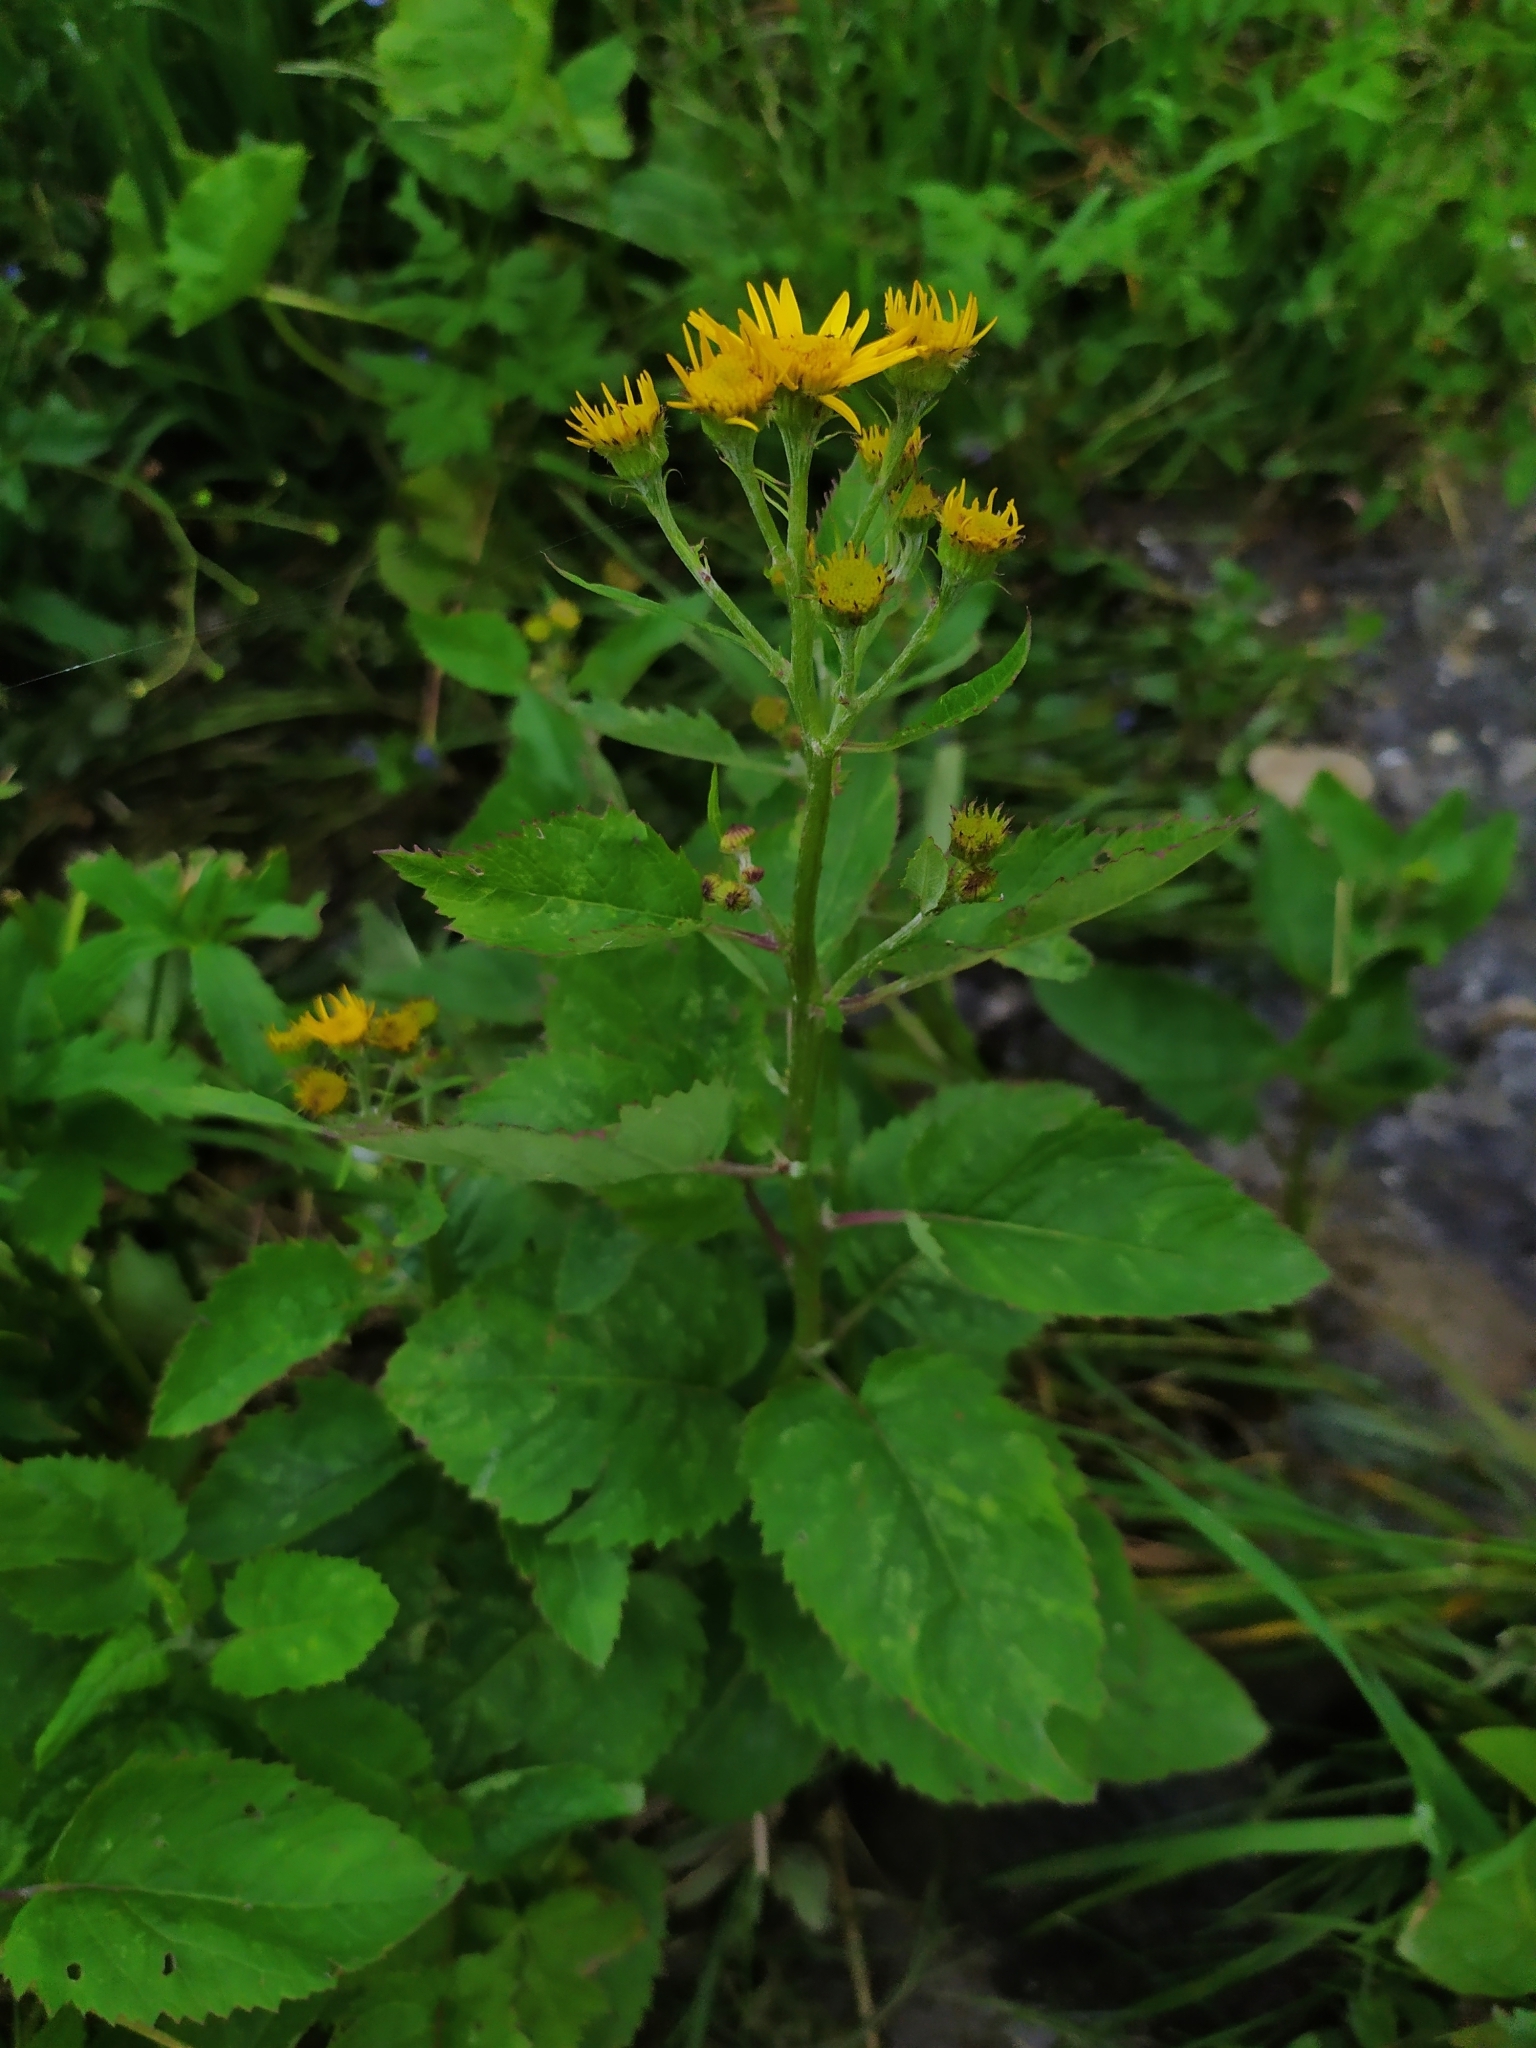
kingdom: Plantae
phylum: Tracheophyta
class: Magnoliopsida
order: Asterales
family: Asteraceae
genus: Jacobaea
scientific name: Jacobaea alpina
